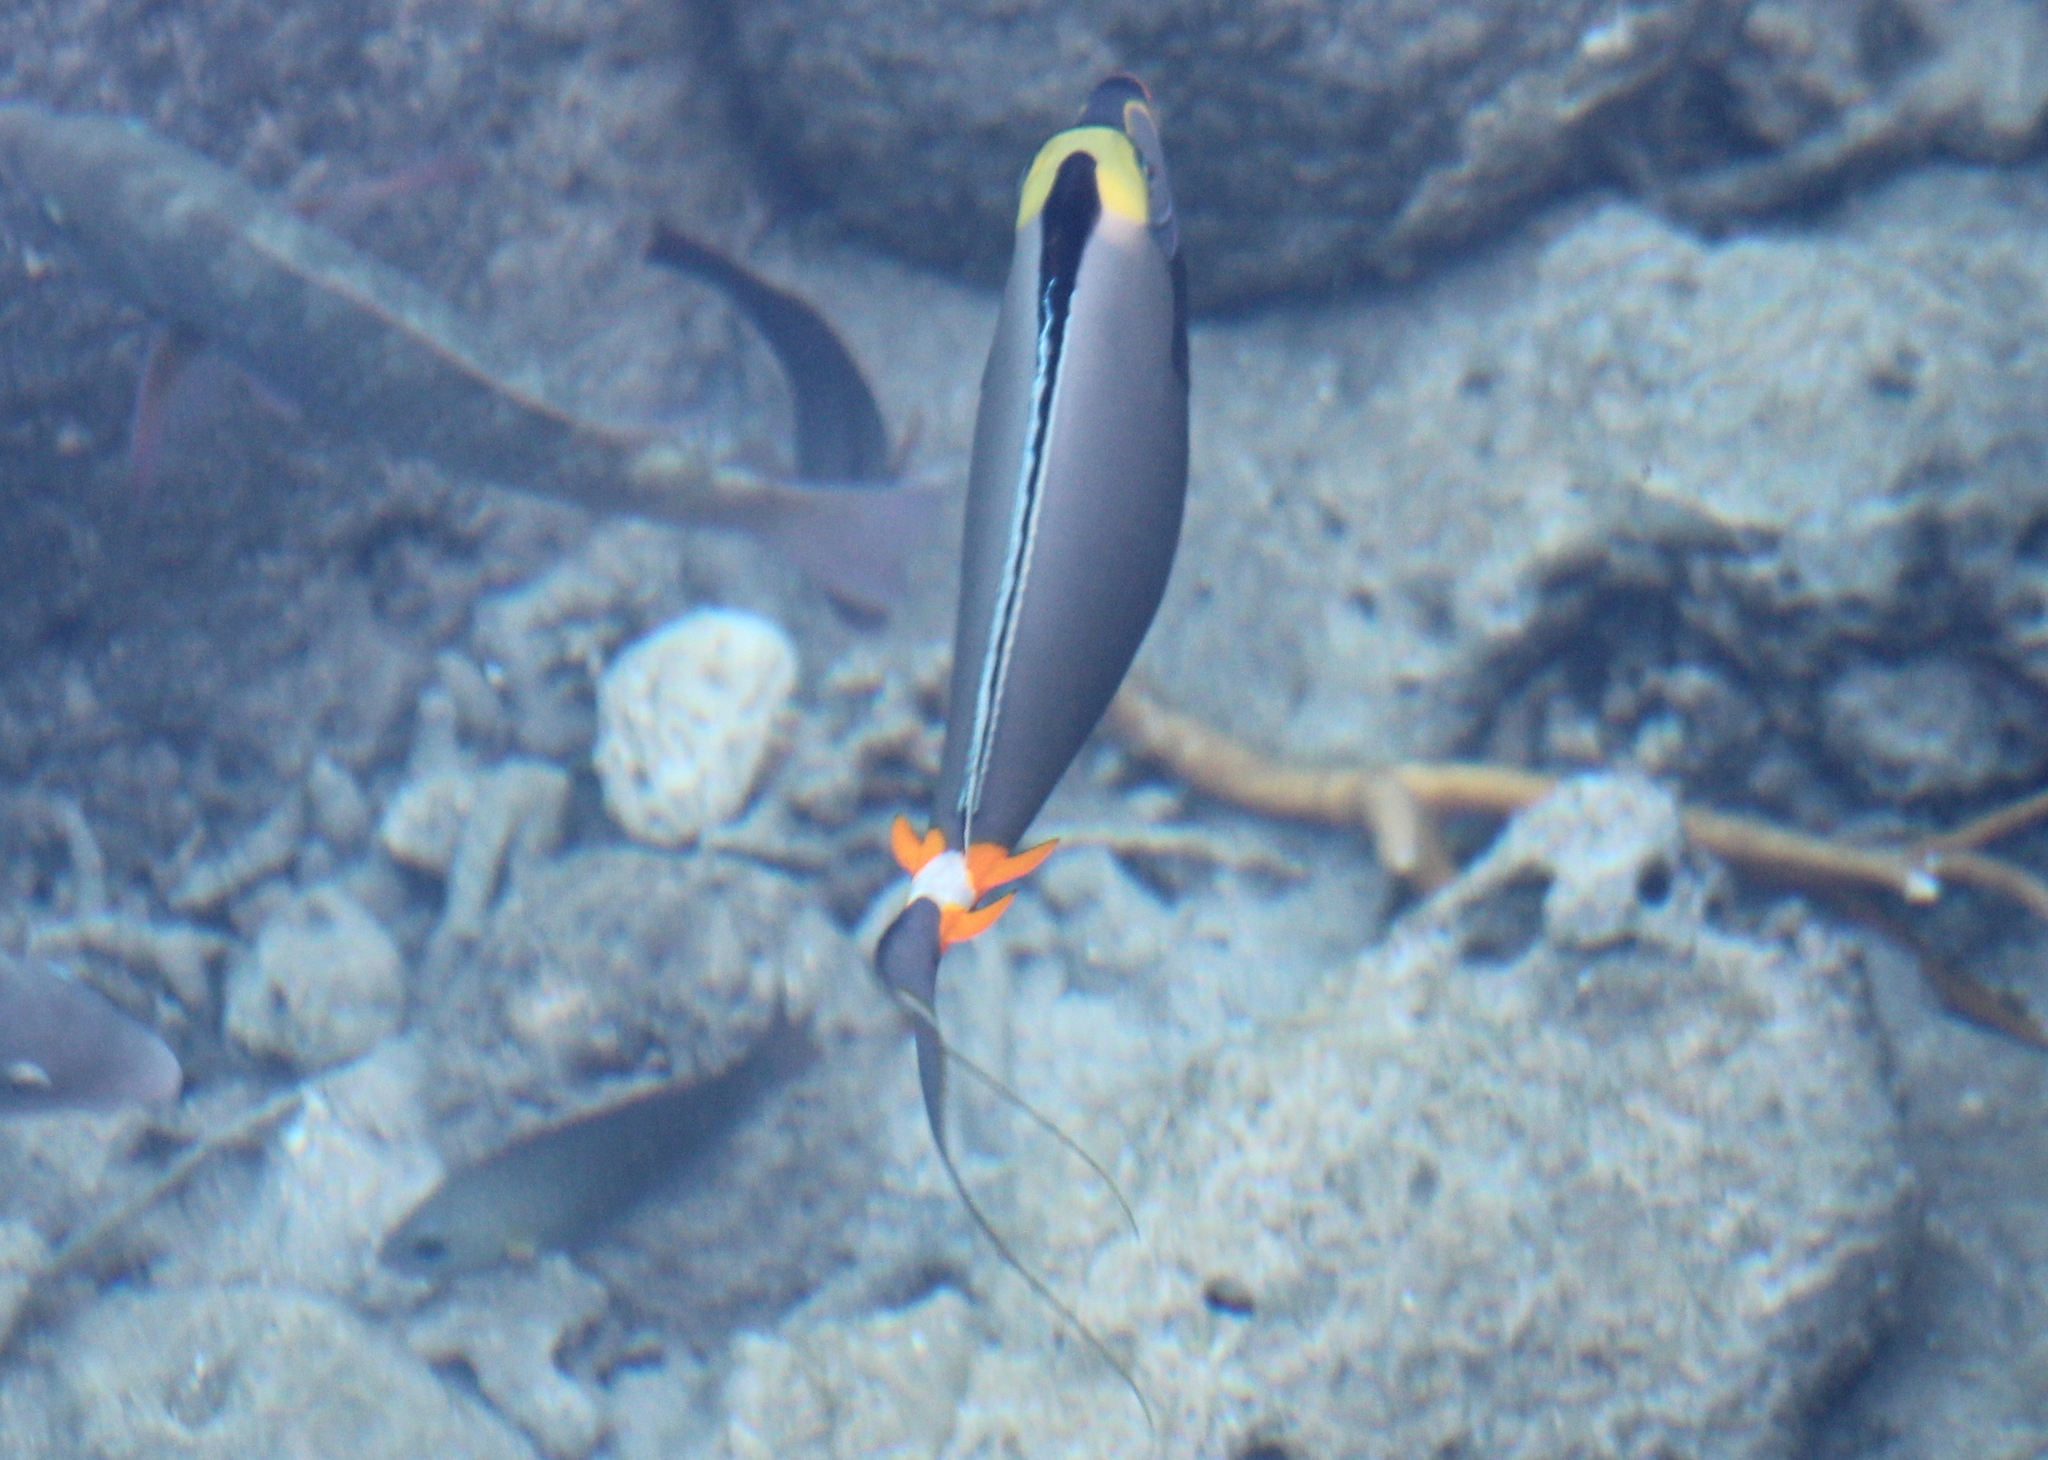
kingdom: Animalia
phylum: Chordata
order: Perciformes
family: Acanthuridae
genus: Naso
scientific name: Naso lituratus
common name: Orangespine unicornfish
